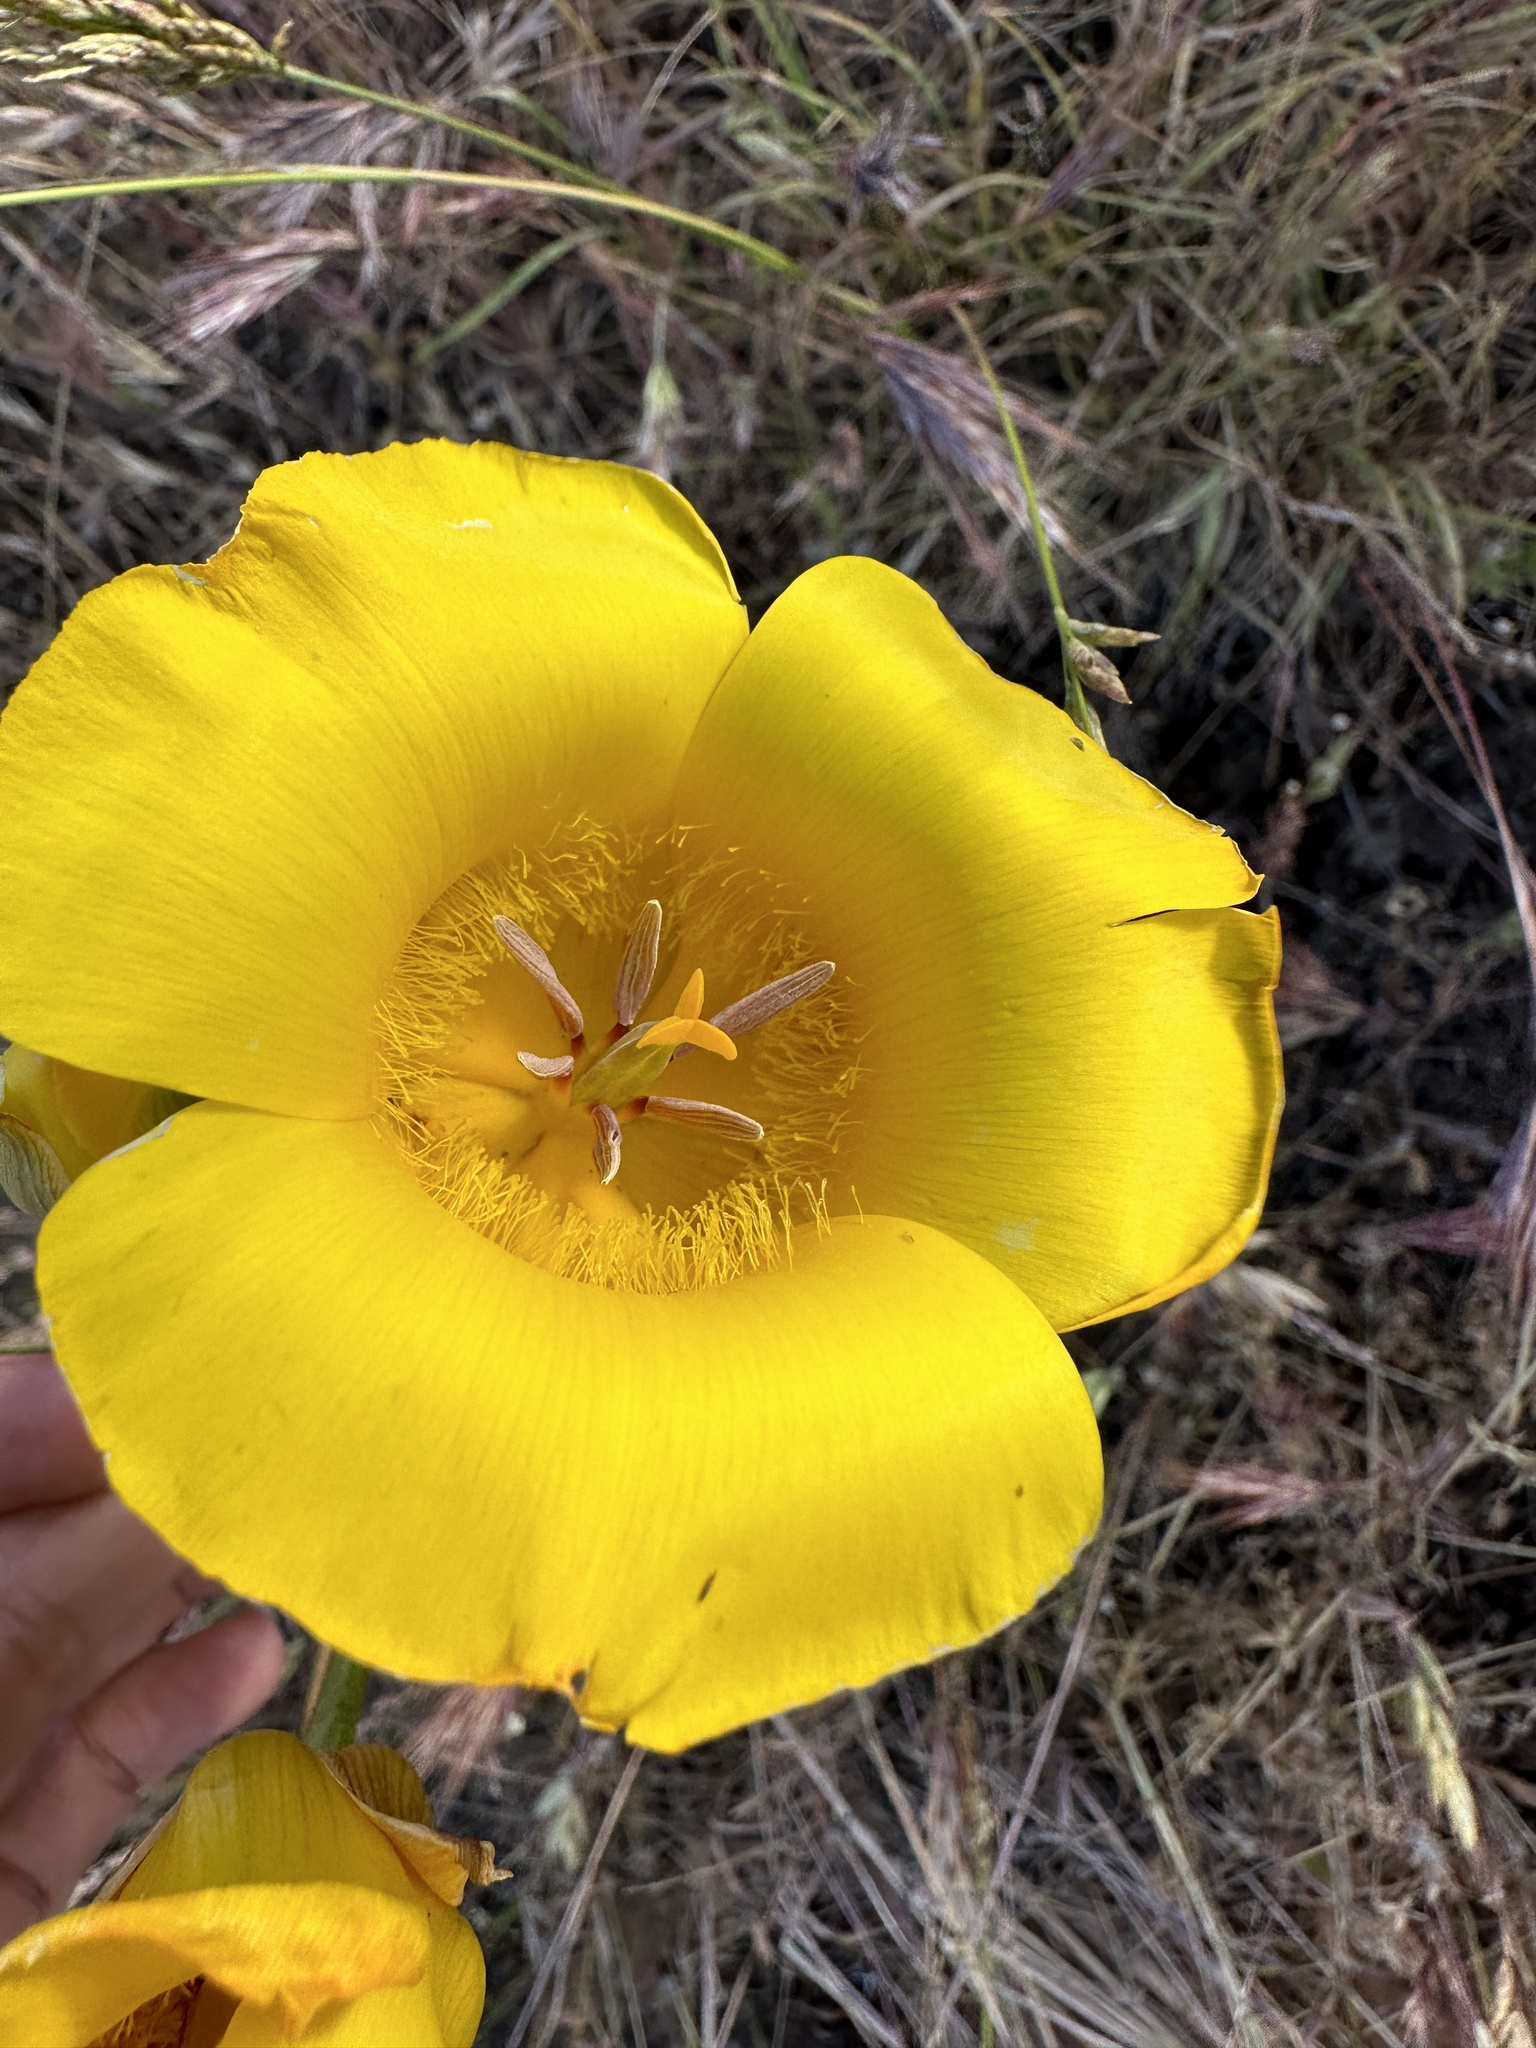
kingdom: Plantae
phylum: Tracheophyta
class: Liliopsida
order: Liliales
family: Liliaceae
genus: Calochortus
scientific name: Calochortus clavatus
